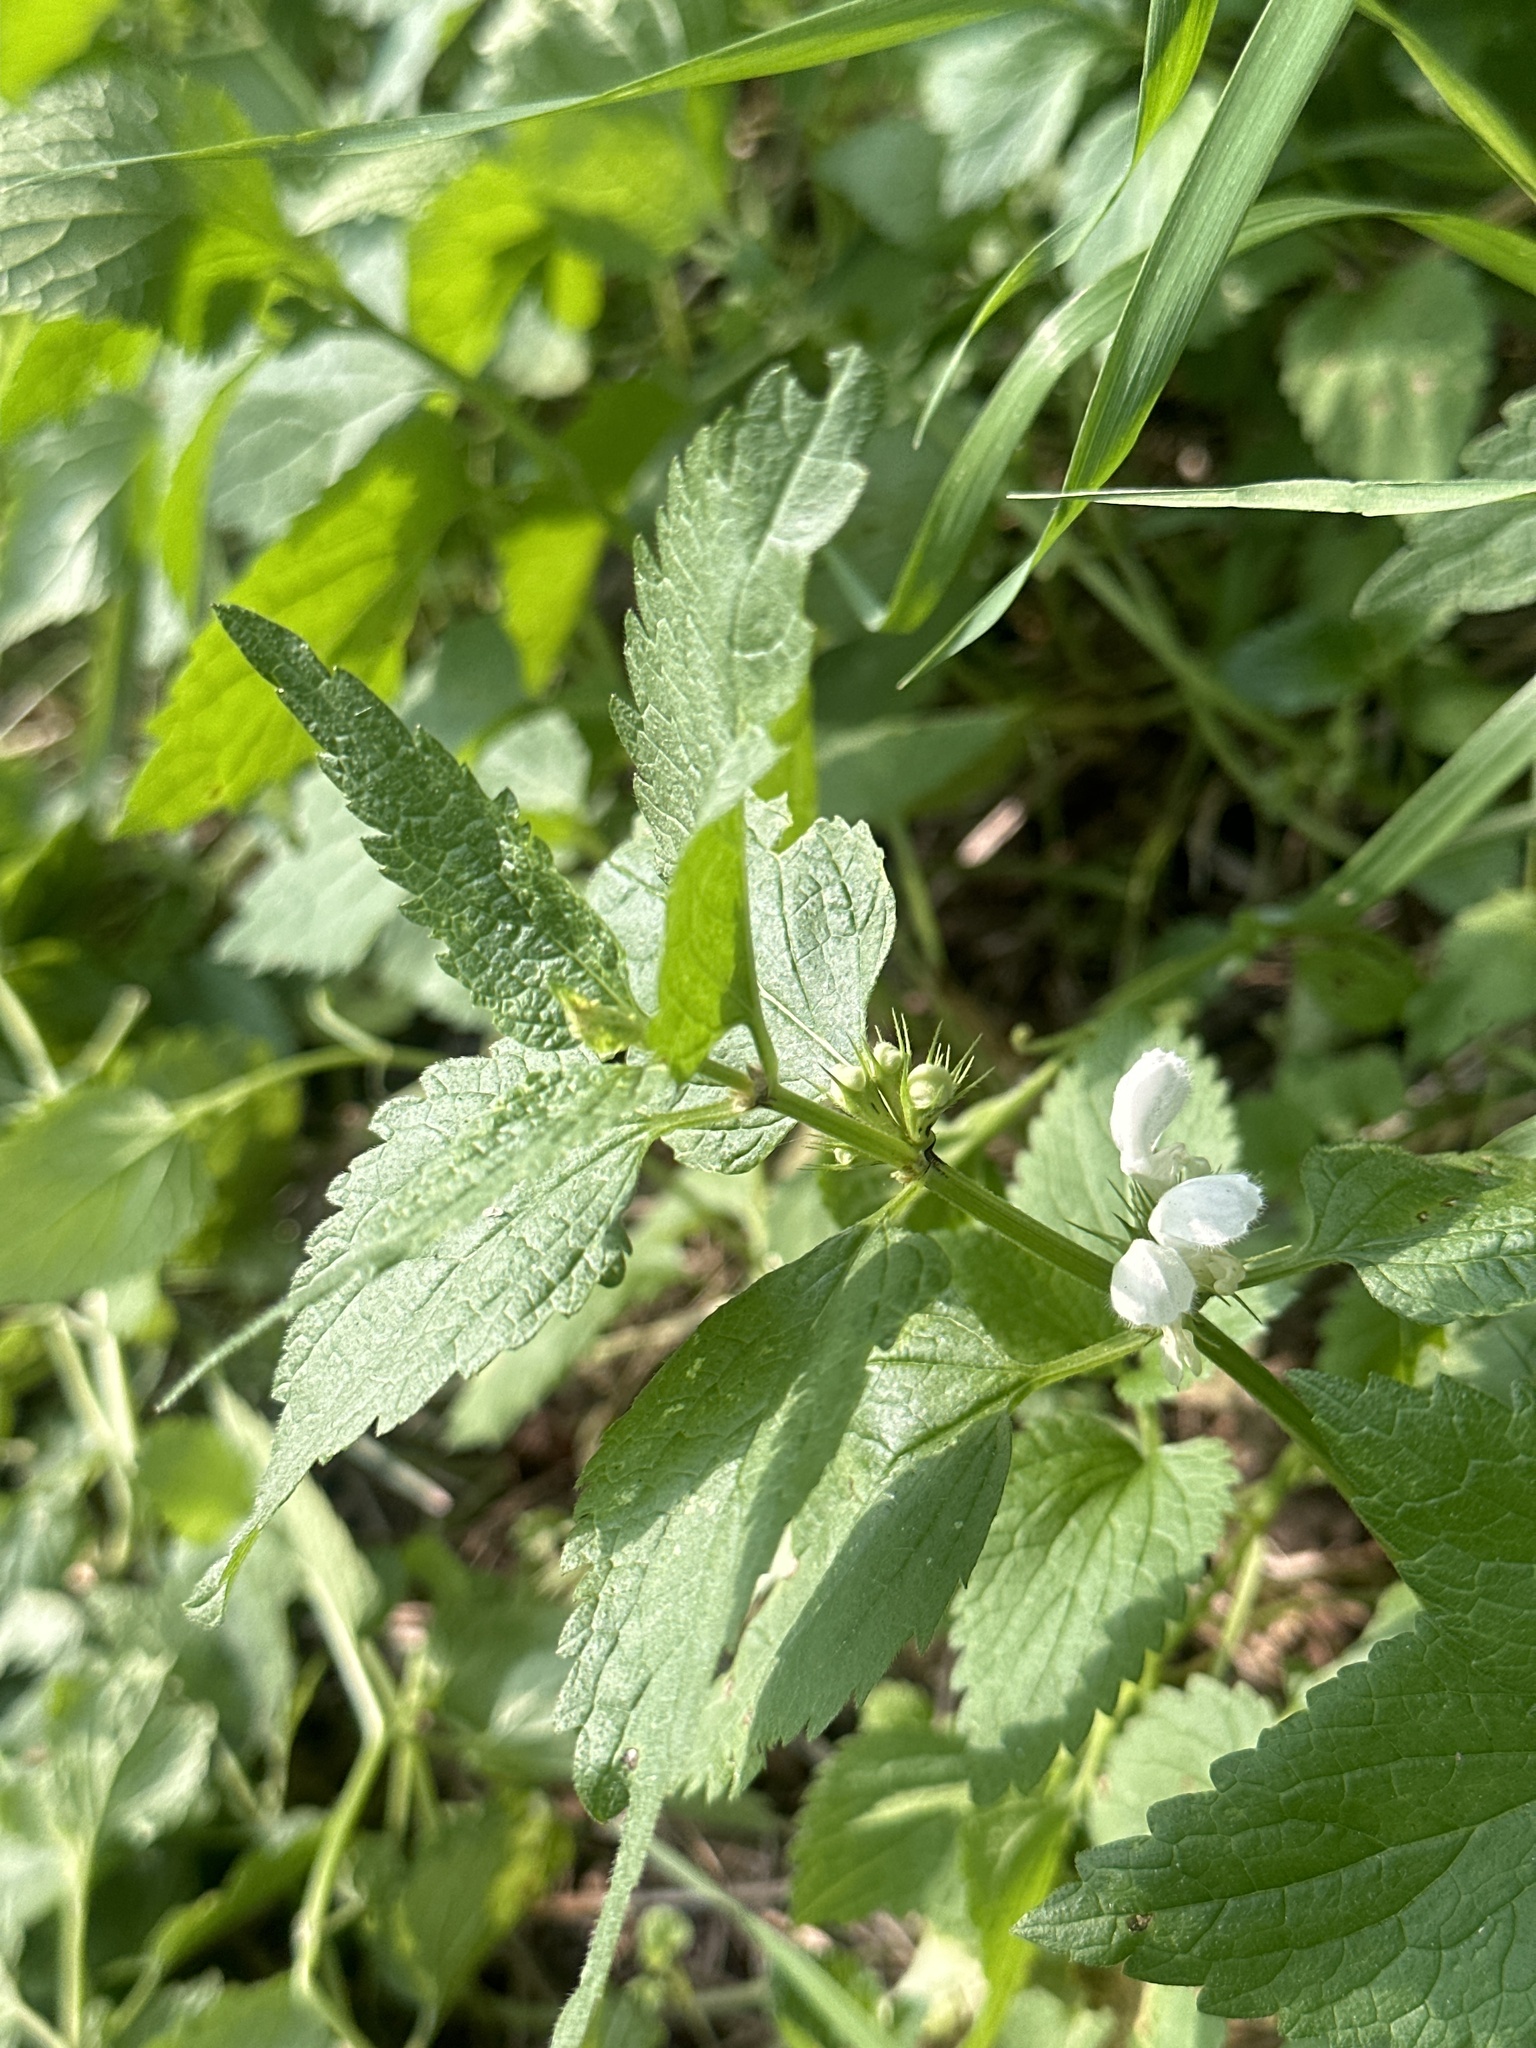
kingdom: Plantae
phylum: Tracheophyta
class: Magnoliopsida
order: Lamiales
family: Lamiaceae
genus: Lamium
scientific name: Lamium album
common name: White dead-nettle
